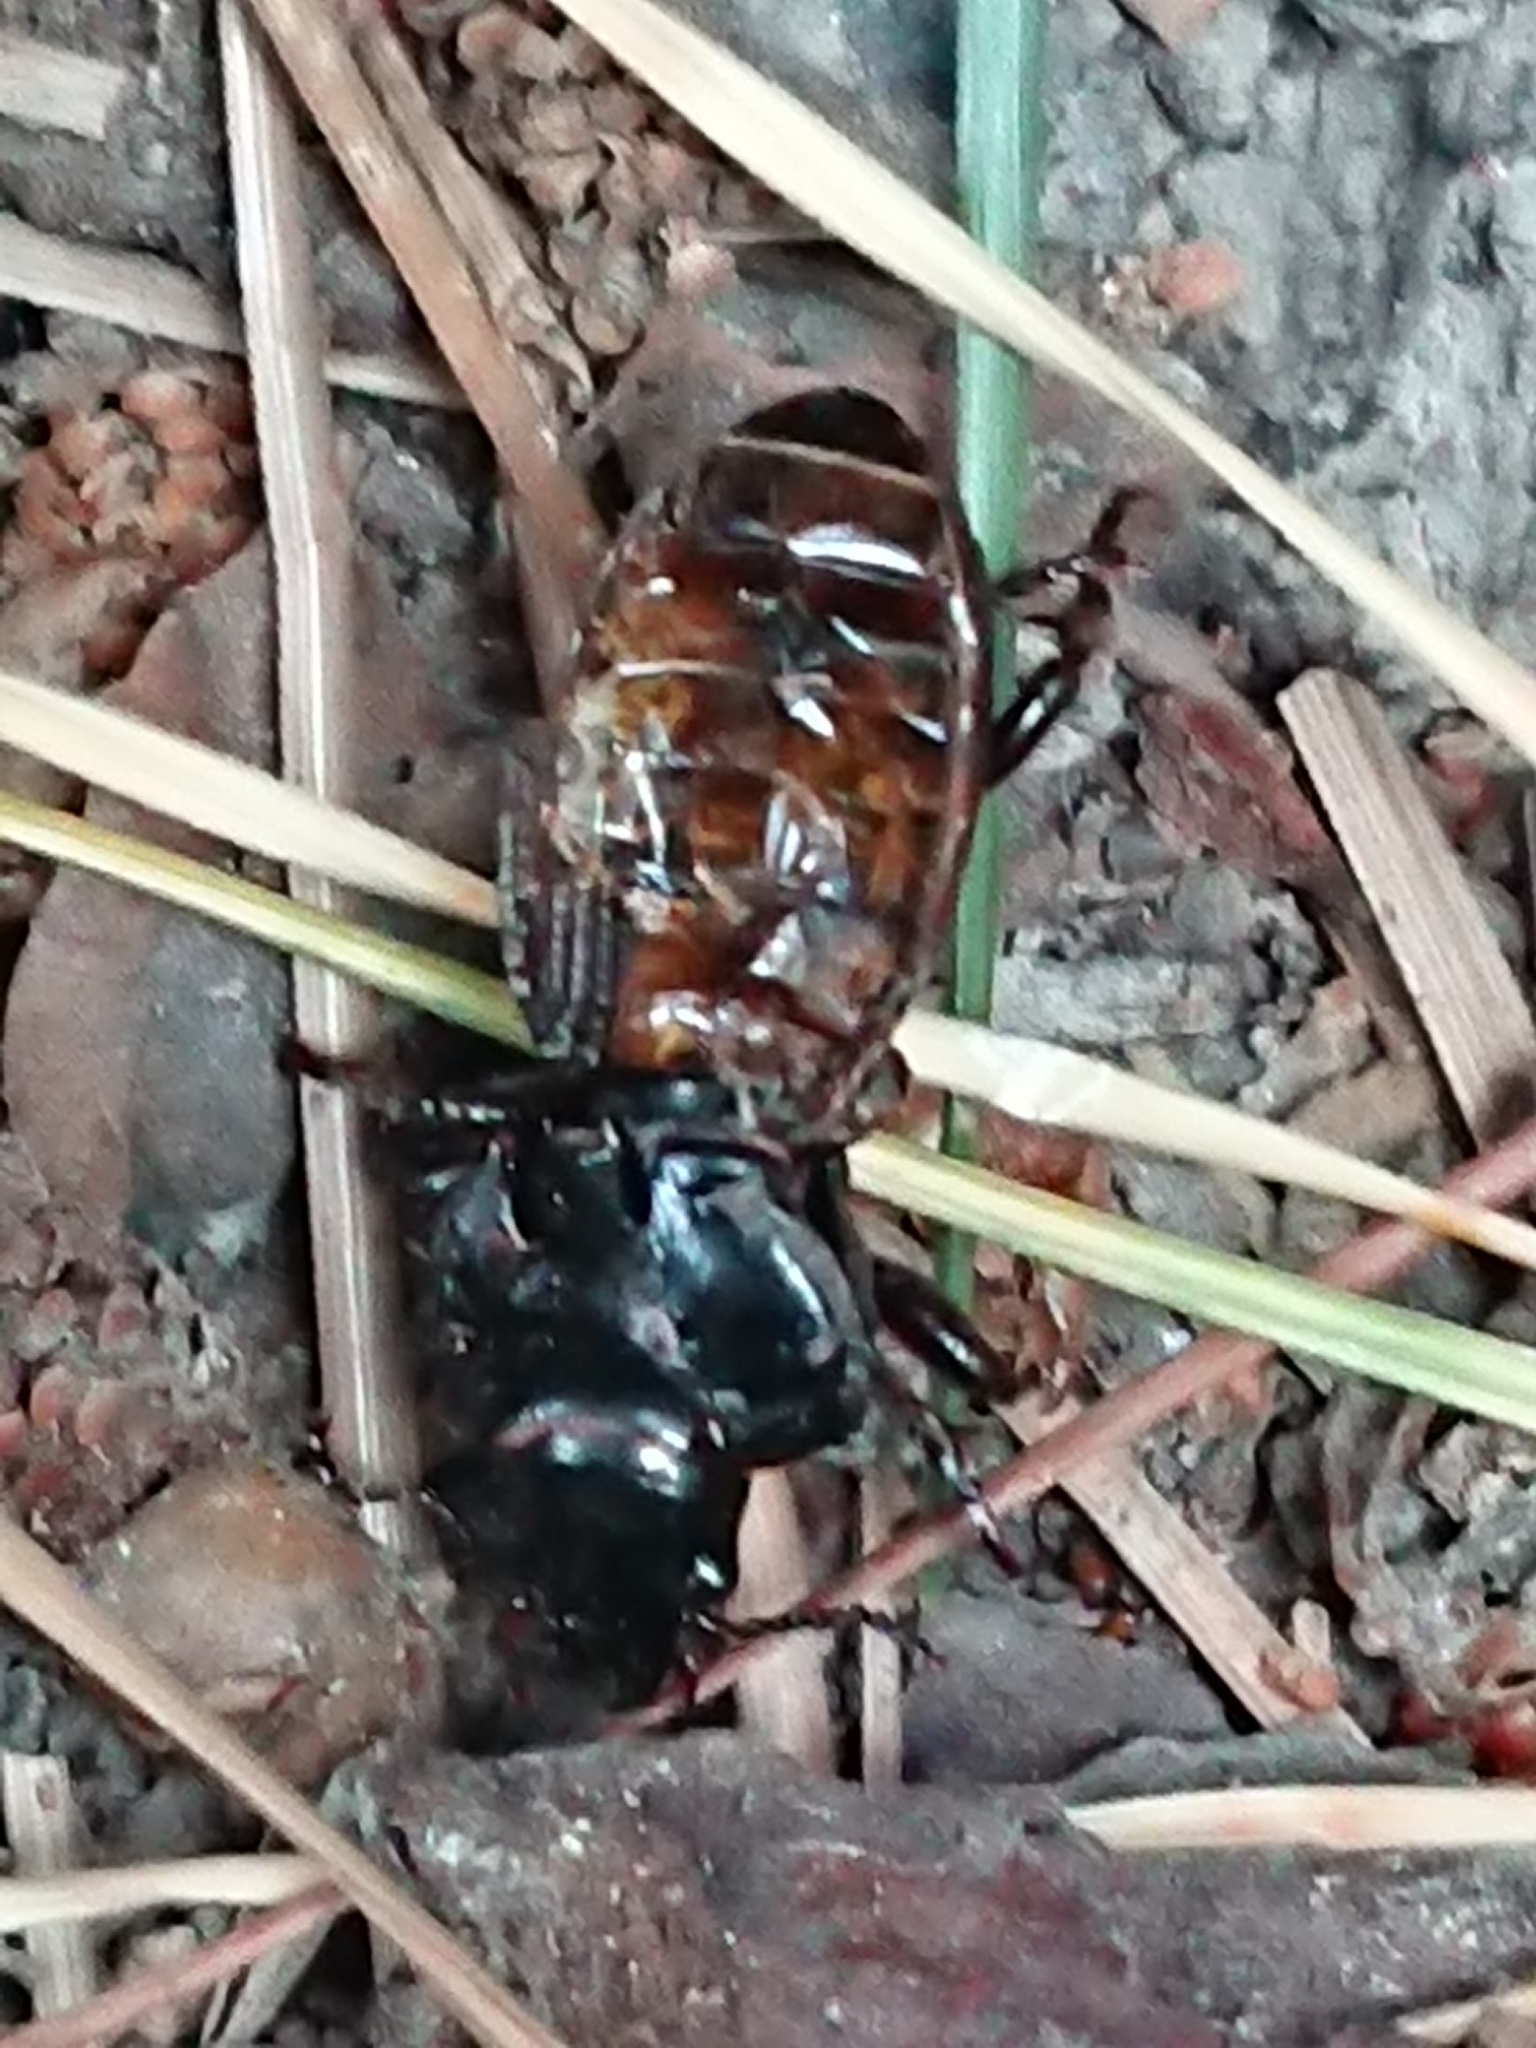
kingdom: Animalia
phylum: Arthropoda
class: Insecta
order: Coleoptera
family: Carabidae
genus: Megadromus
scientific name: Megadromus antarcticus
